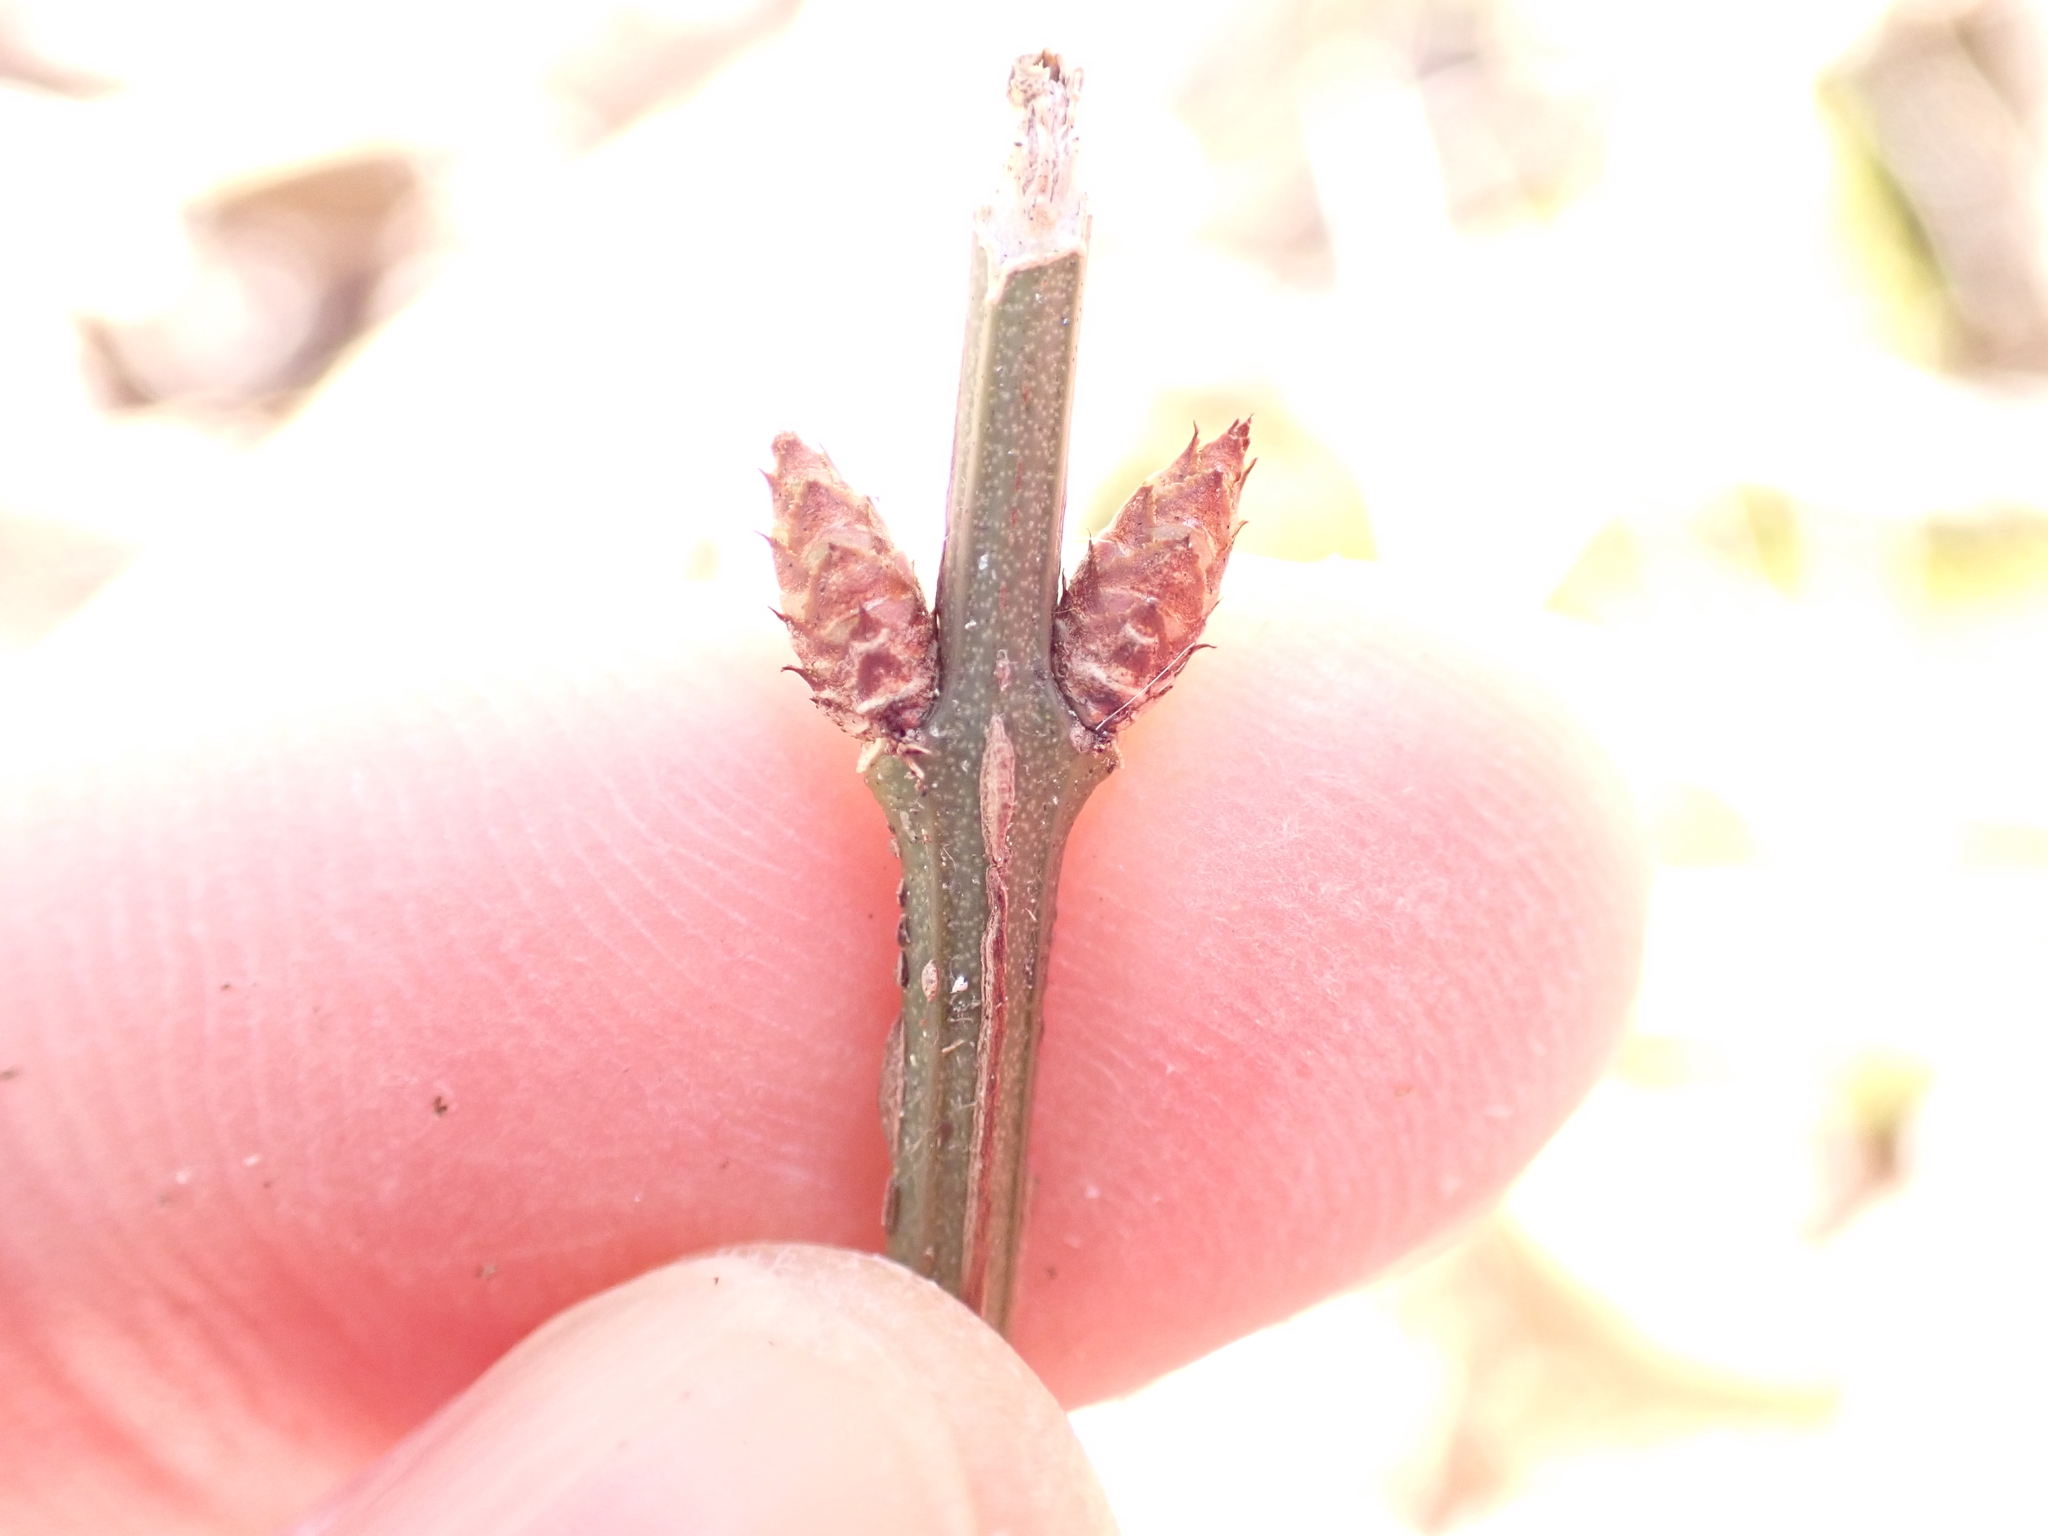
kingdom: Plantae
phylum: Tracheophyta
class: Magnoliopsida
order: Celastrales
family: Celastraceae
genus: Euonymus
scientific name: Euonymus alatus
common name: Winged euonymus
